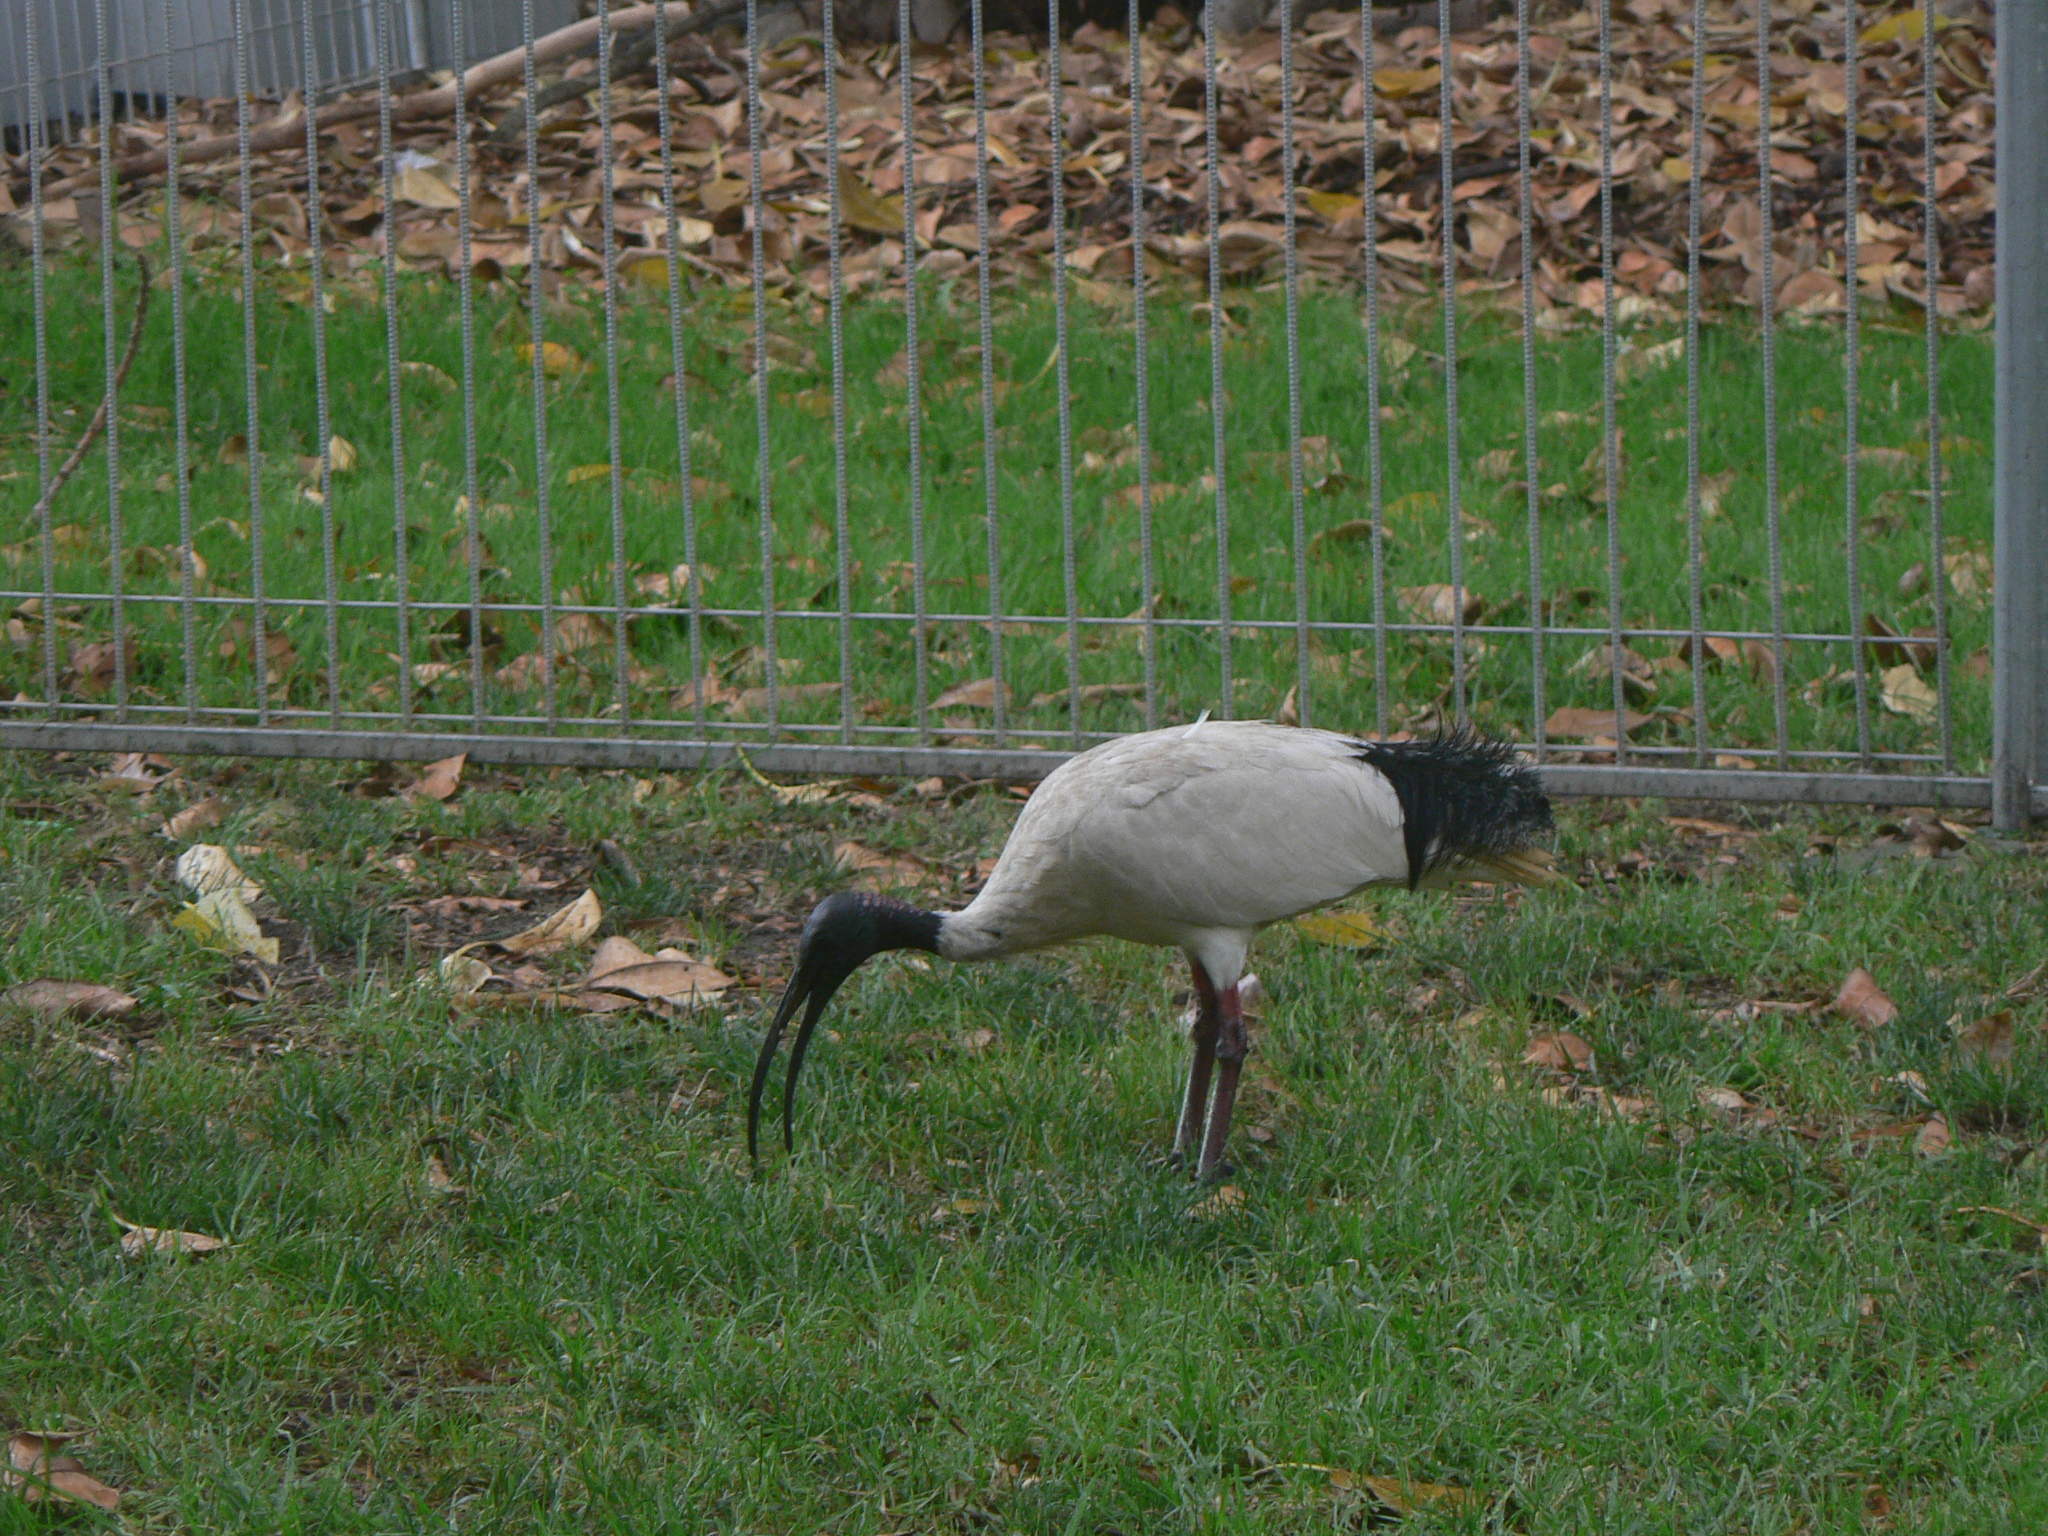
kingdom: Animalia
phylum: Chordata
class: Aves
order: Pelecaniformes
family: Threskiornithidae
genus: Threskiornis
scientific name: Threskiornis molucca
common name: Australian white ibis
